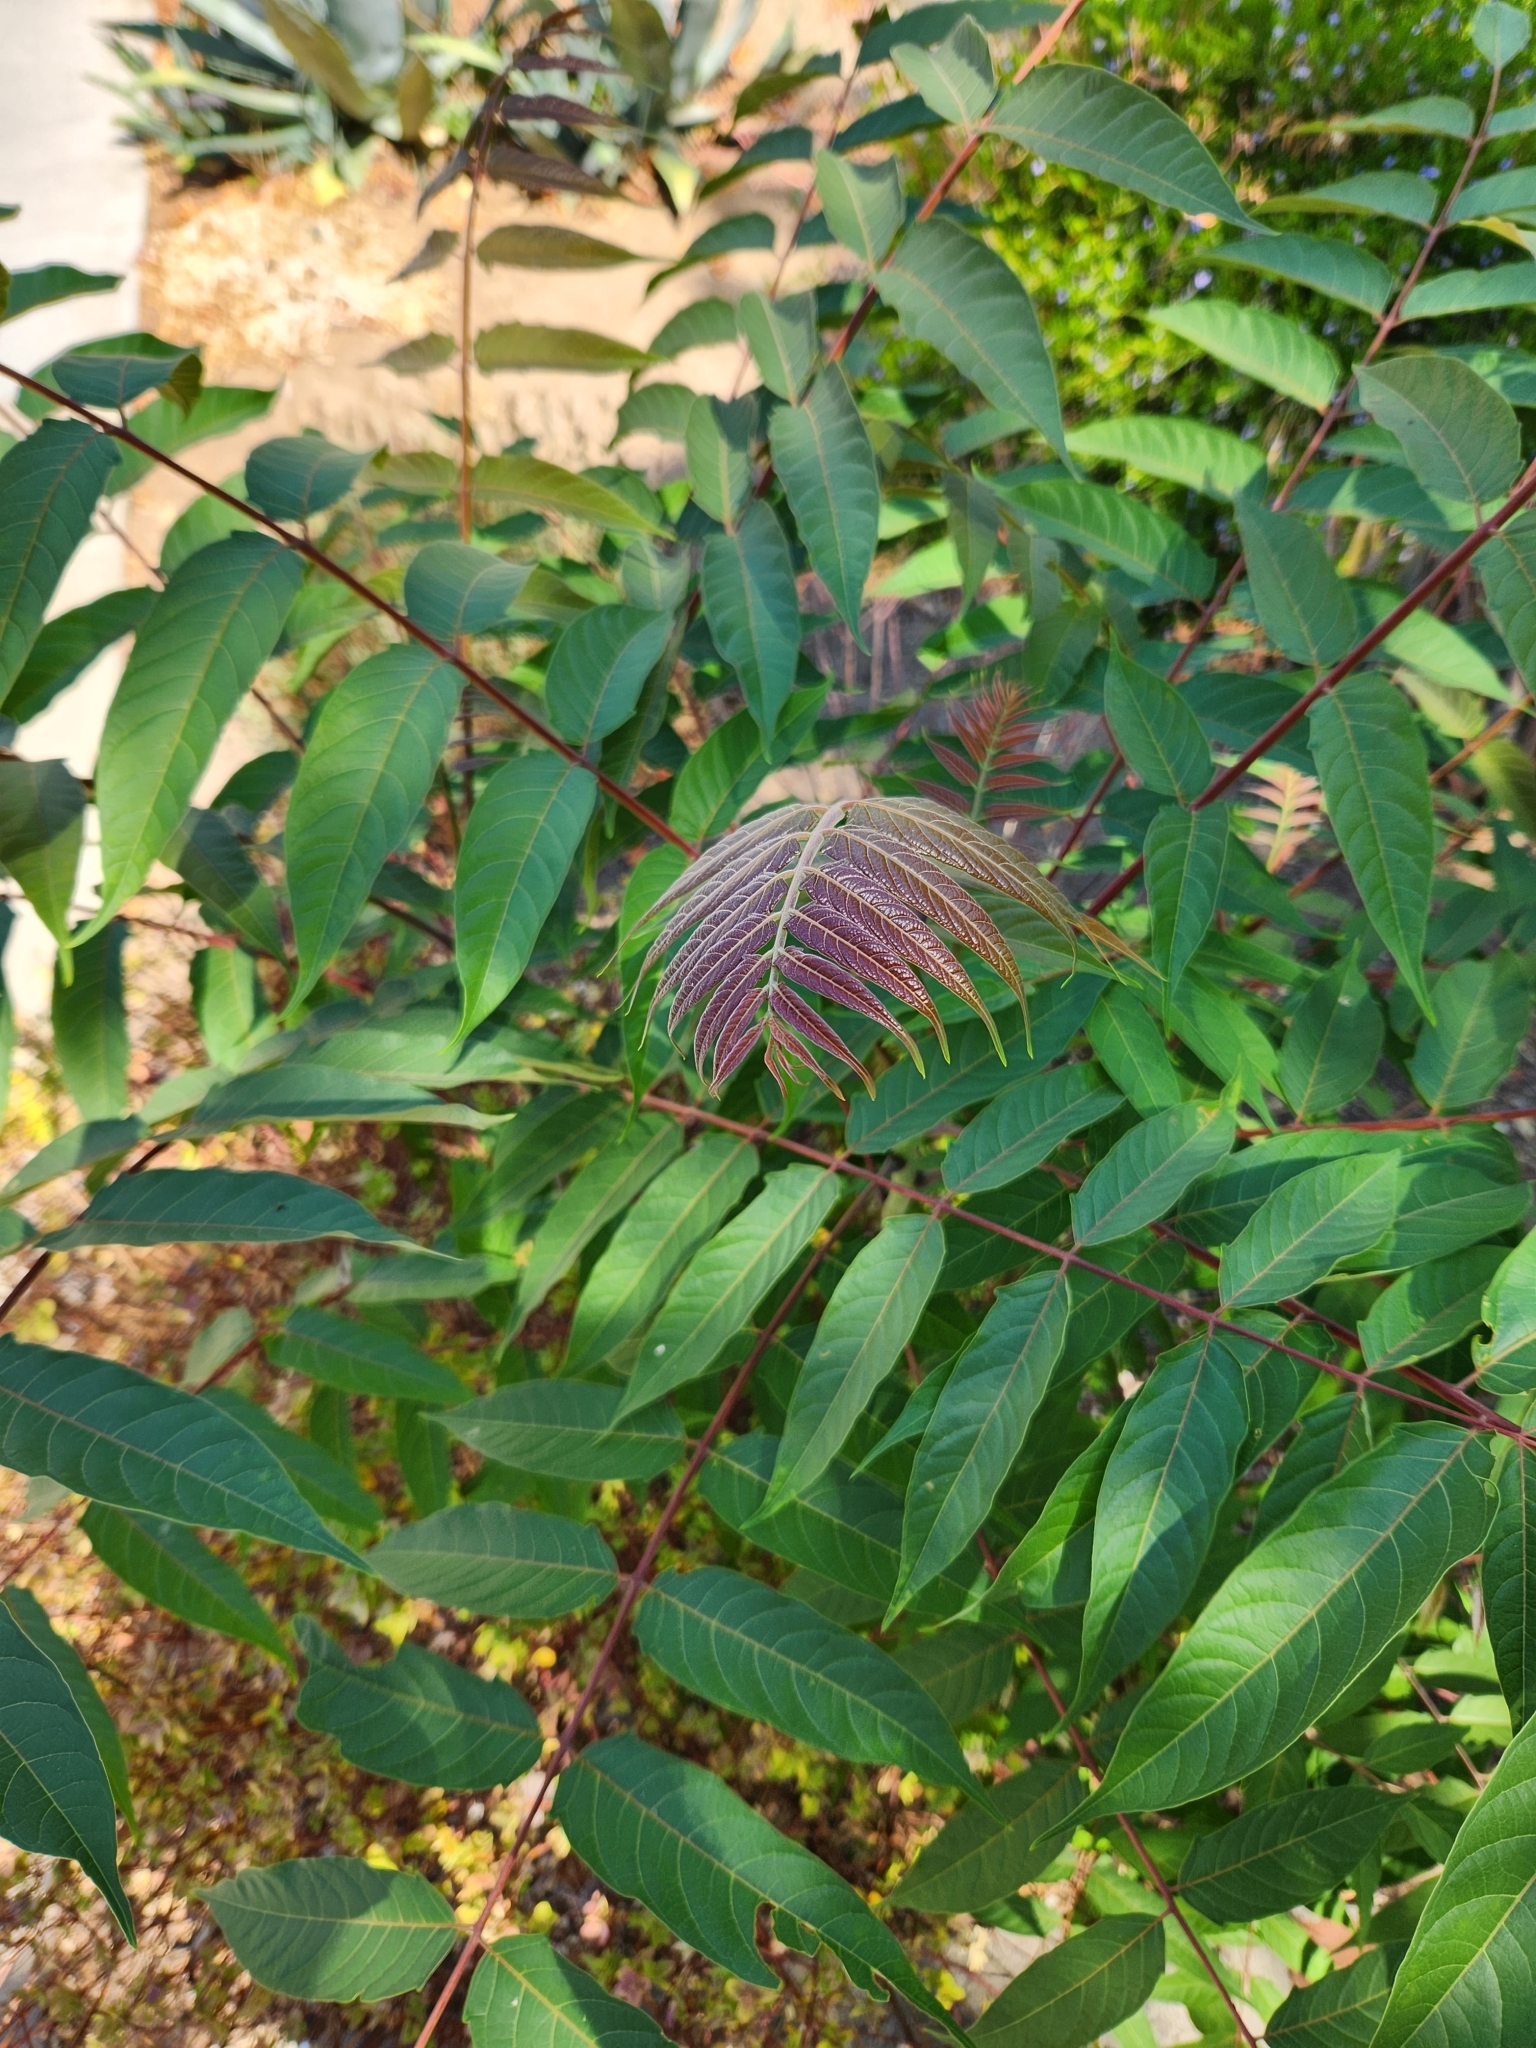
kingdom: Plantae
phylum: Tracheophyta
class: Magnoliopsida
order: Sapindales
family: Simaroubaceae
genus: Ailanthus
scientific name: Ailanthus altissima
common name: Tree-of-heaven
